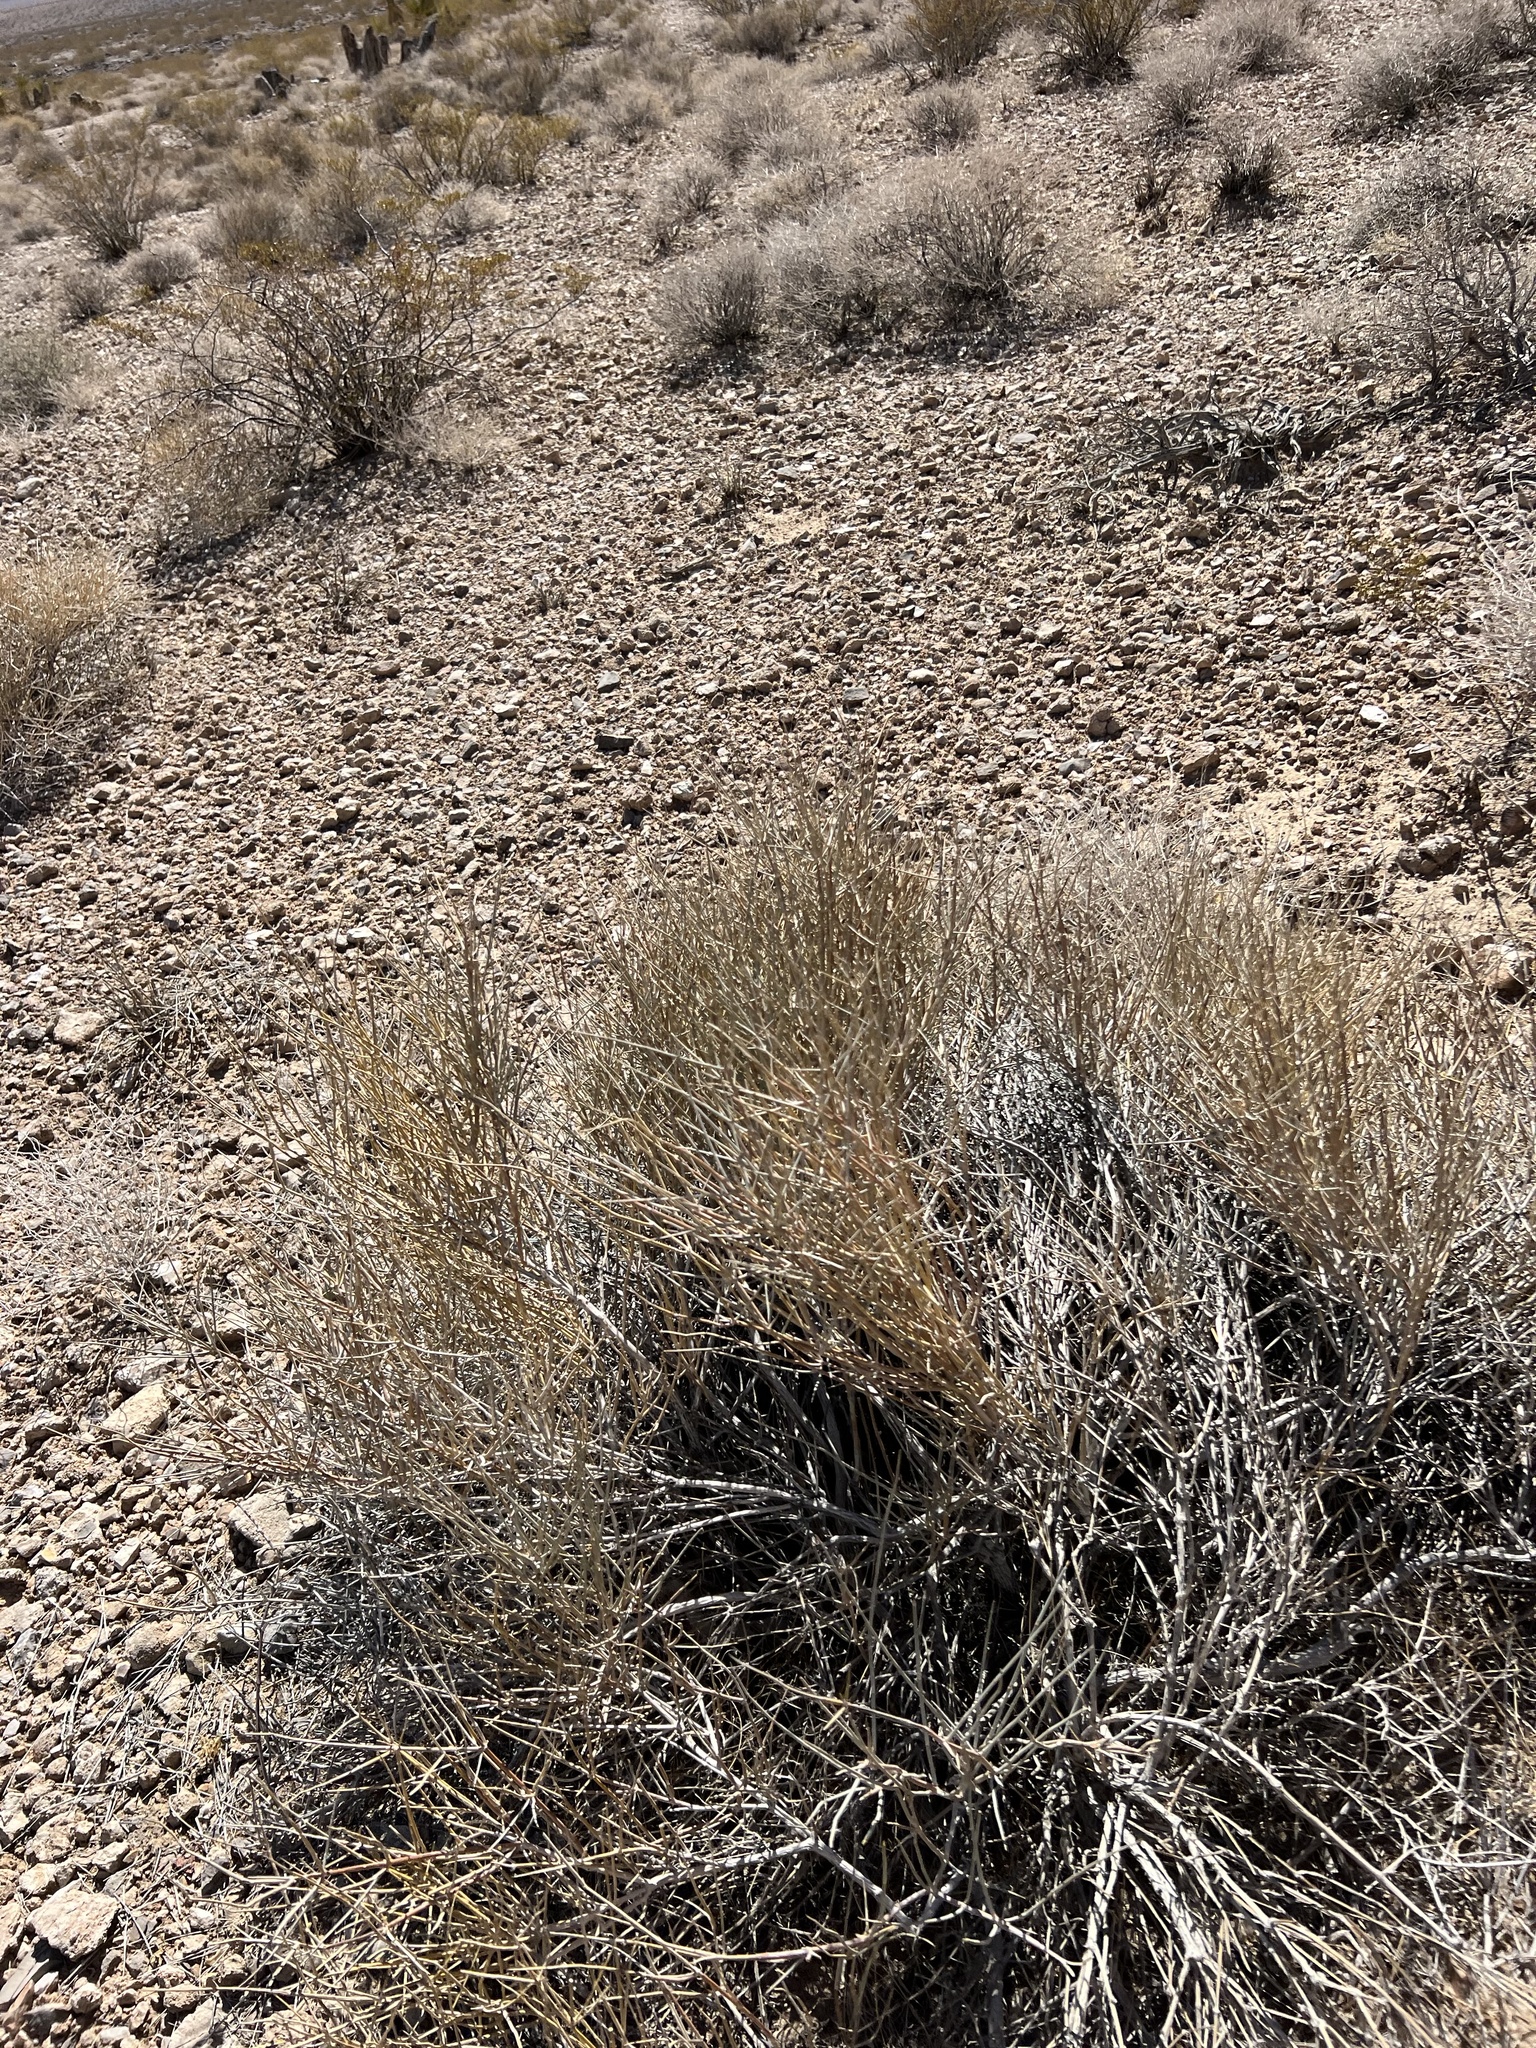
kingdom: Plantae
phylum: Tracheophyta
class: Gnetopsida
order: Ephedrales
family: Ephedraceae
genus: Ephedra
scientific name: Ephedra nevadensis
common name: Gray ephedra
